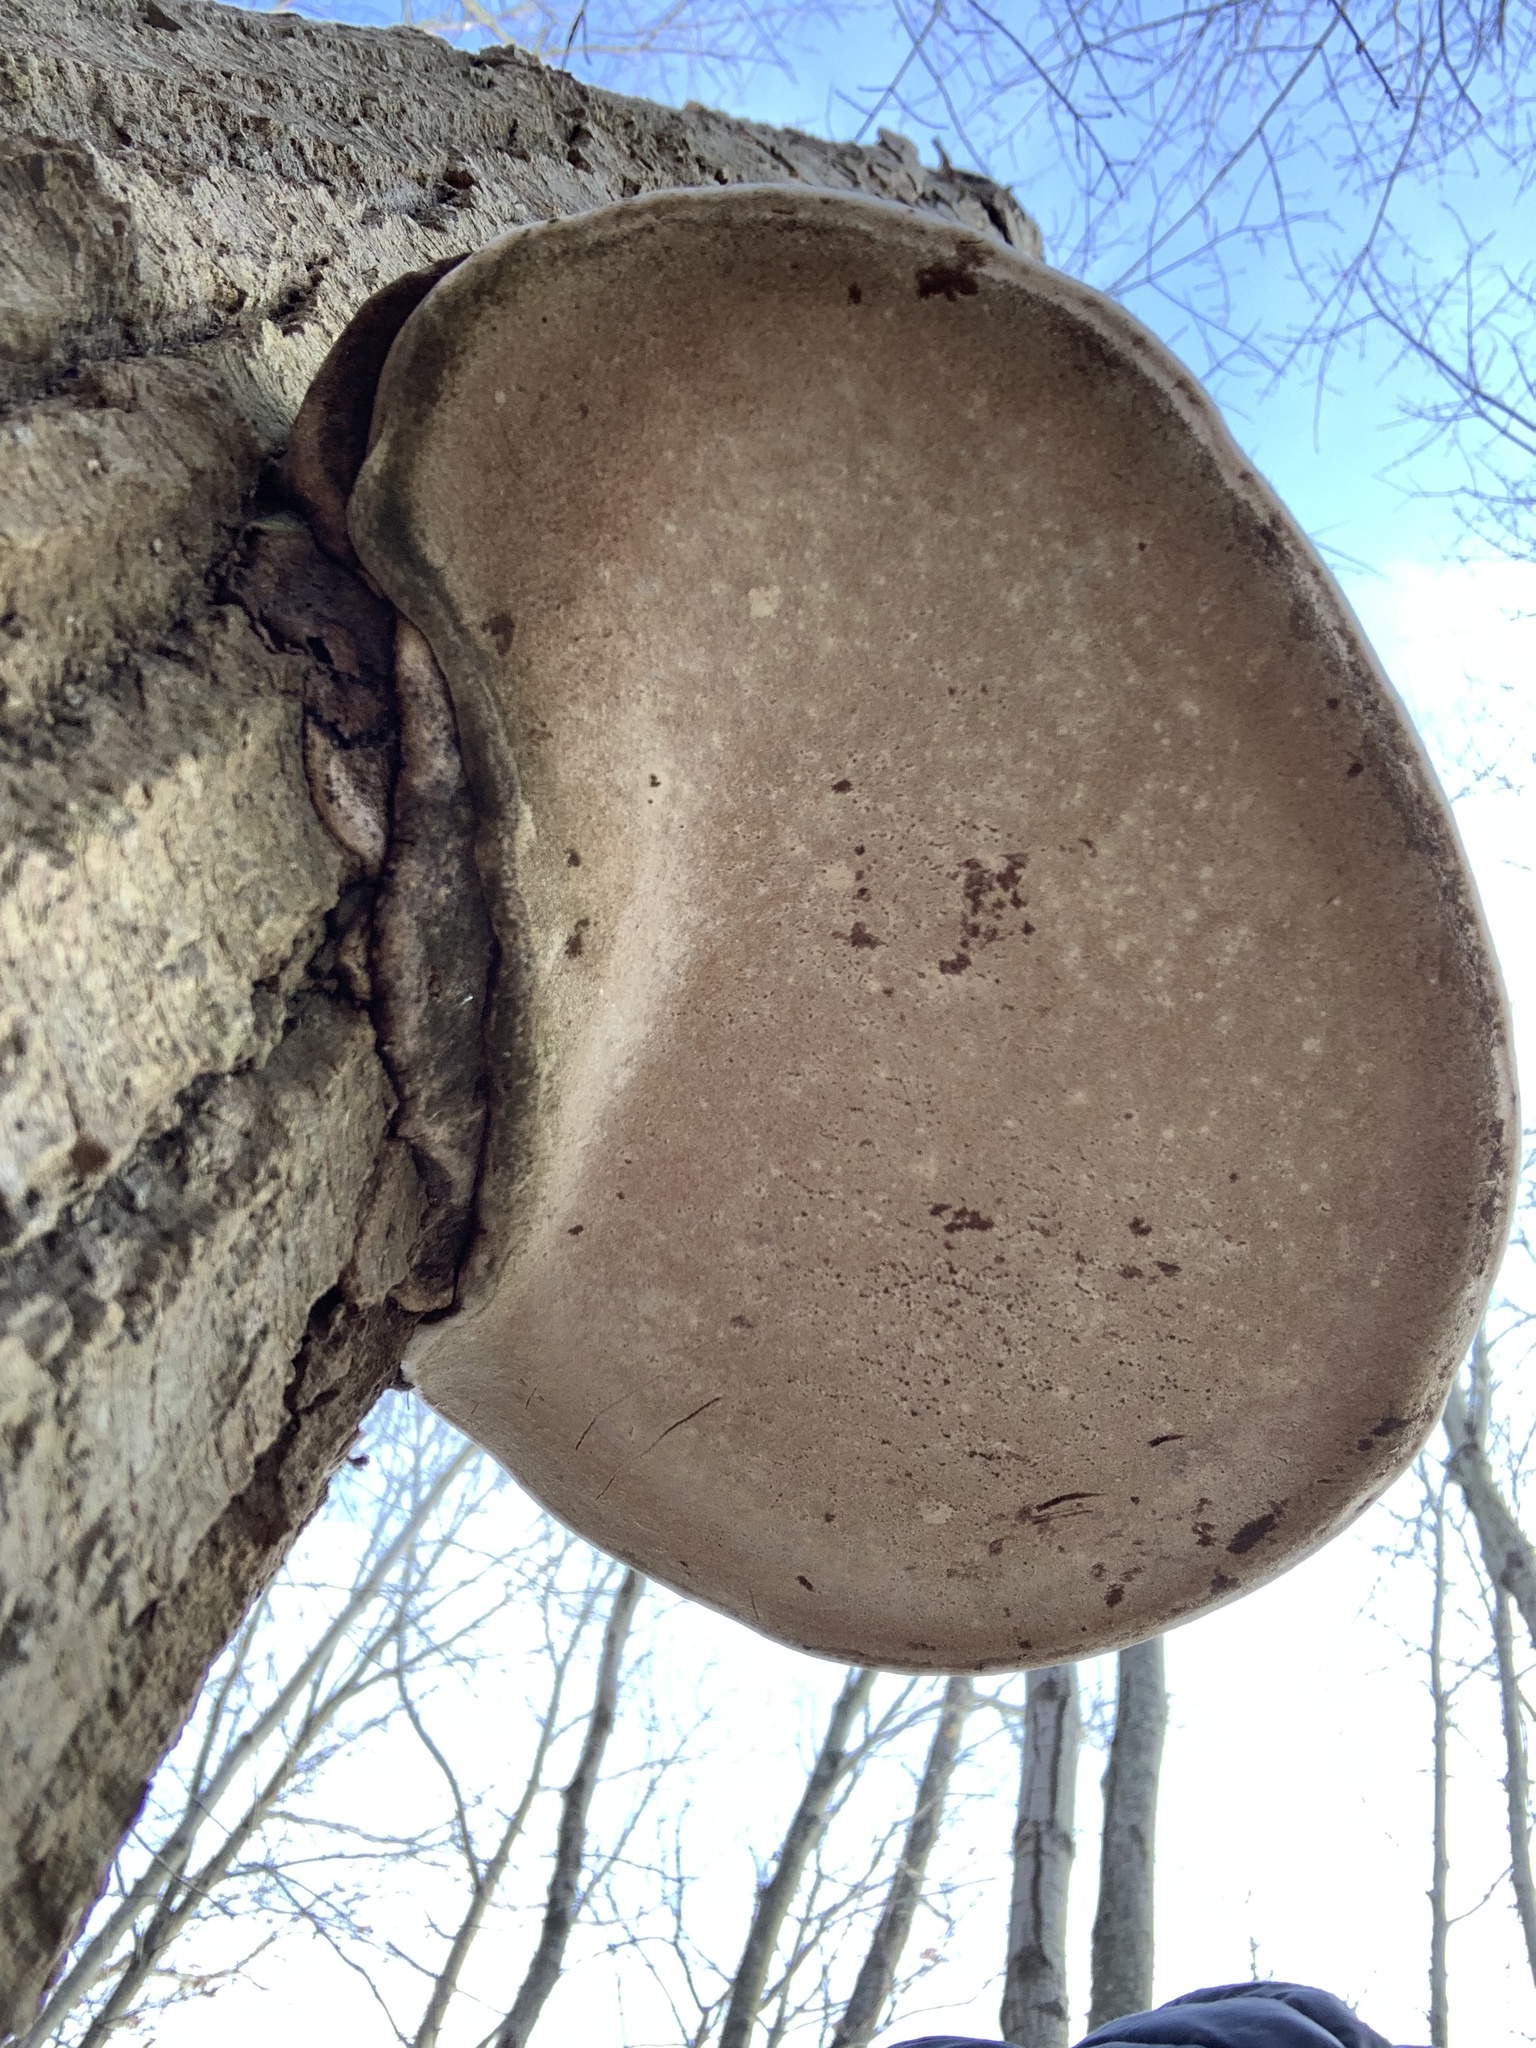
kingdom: Fungi
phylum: Basidiomycota
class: Agaricomycetes
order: Polyporales
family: Polyporaceae
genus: Ganoderma
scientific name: Ganoderma applanatum
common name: Artist's bracket
